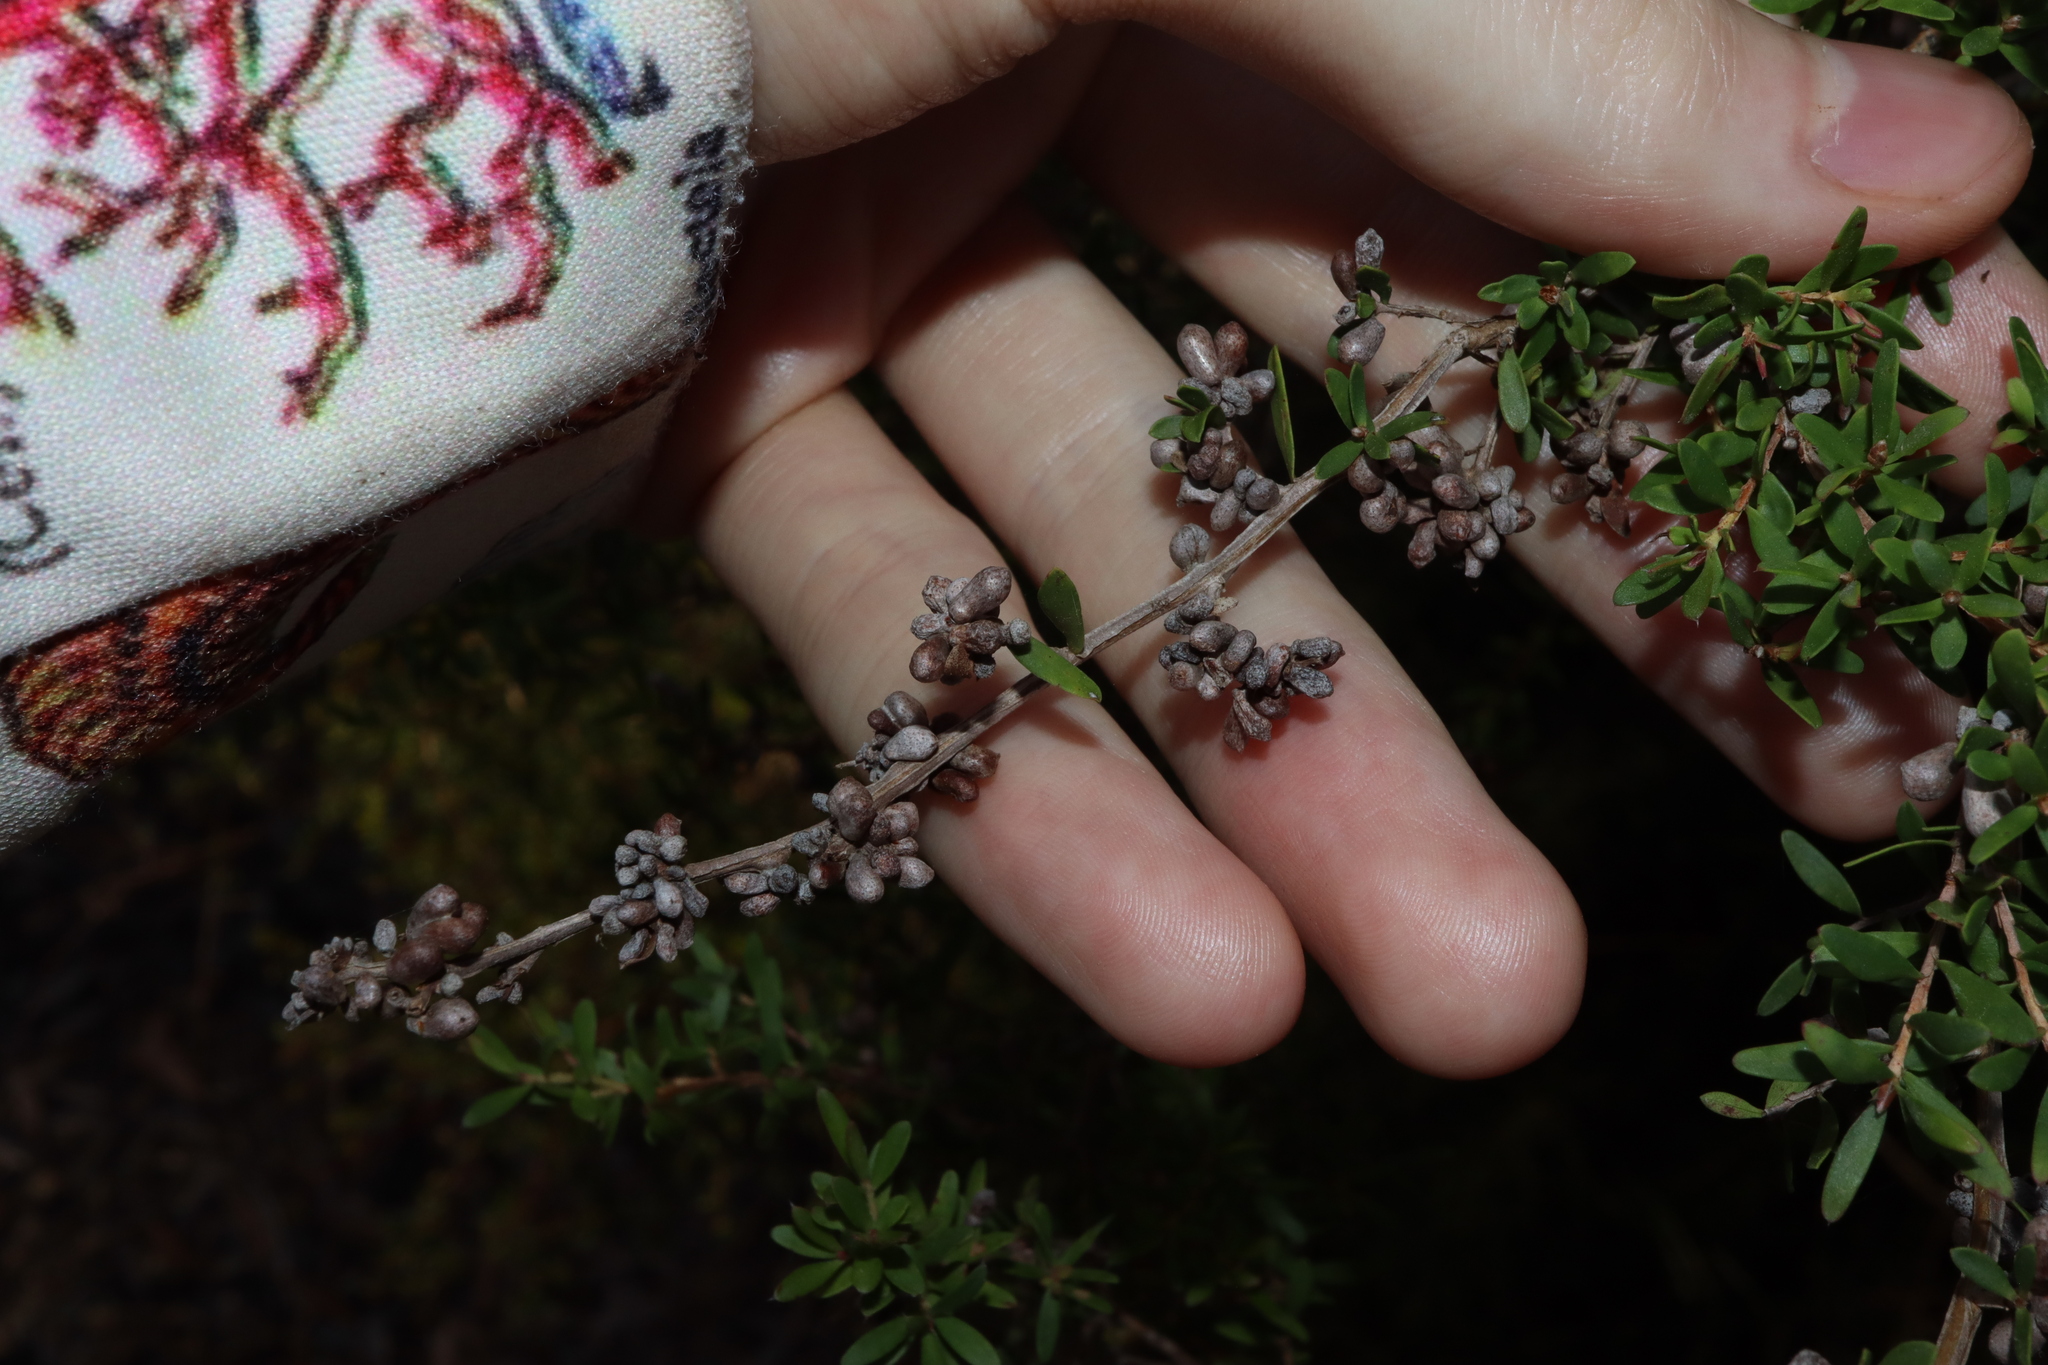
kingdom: Animalia
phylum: Arthropoda
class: Insecta
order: Hemiptera
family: Asterolecaniidae
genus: Eremococcus
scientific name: Eremococcus
